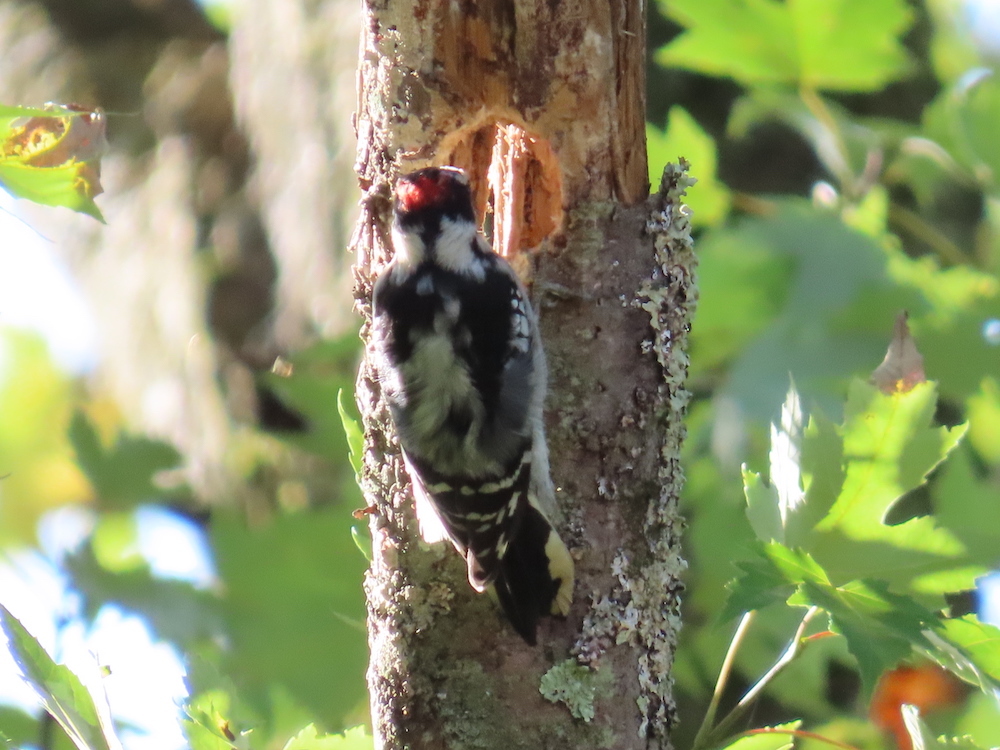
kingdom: Animalia
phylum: Chordata
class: Aves
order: Piciformes
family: Picidae
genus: Dryobates
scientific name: Dryobates pubescens
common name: Downy woodpecker
